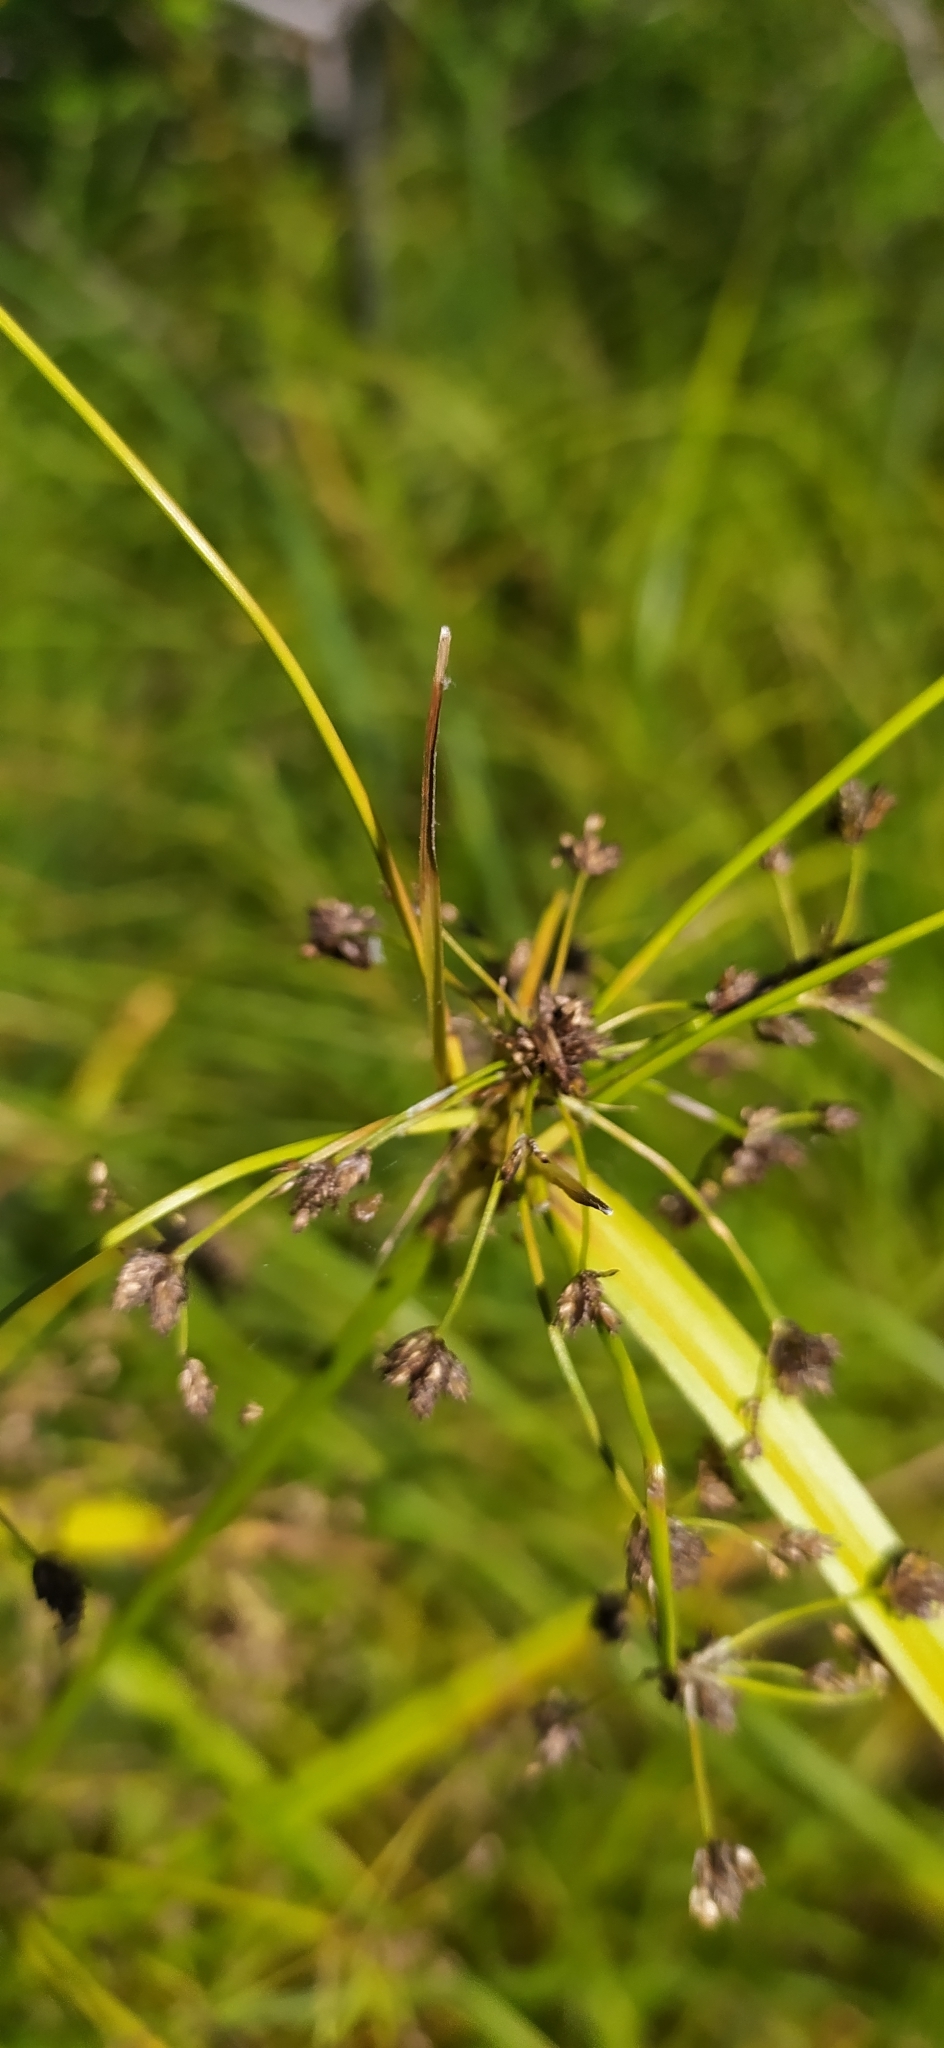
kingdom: Plantae
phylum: Tracheophyta
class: Liliopsida
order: Poales
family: Cyperaceae
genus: Scirpus
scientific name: Scirpus radicans
